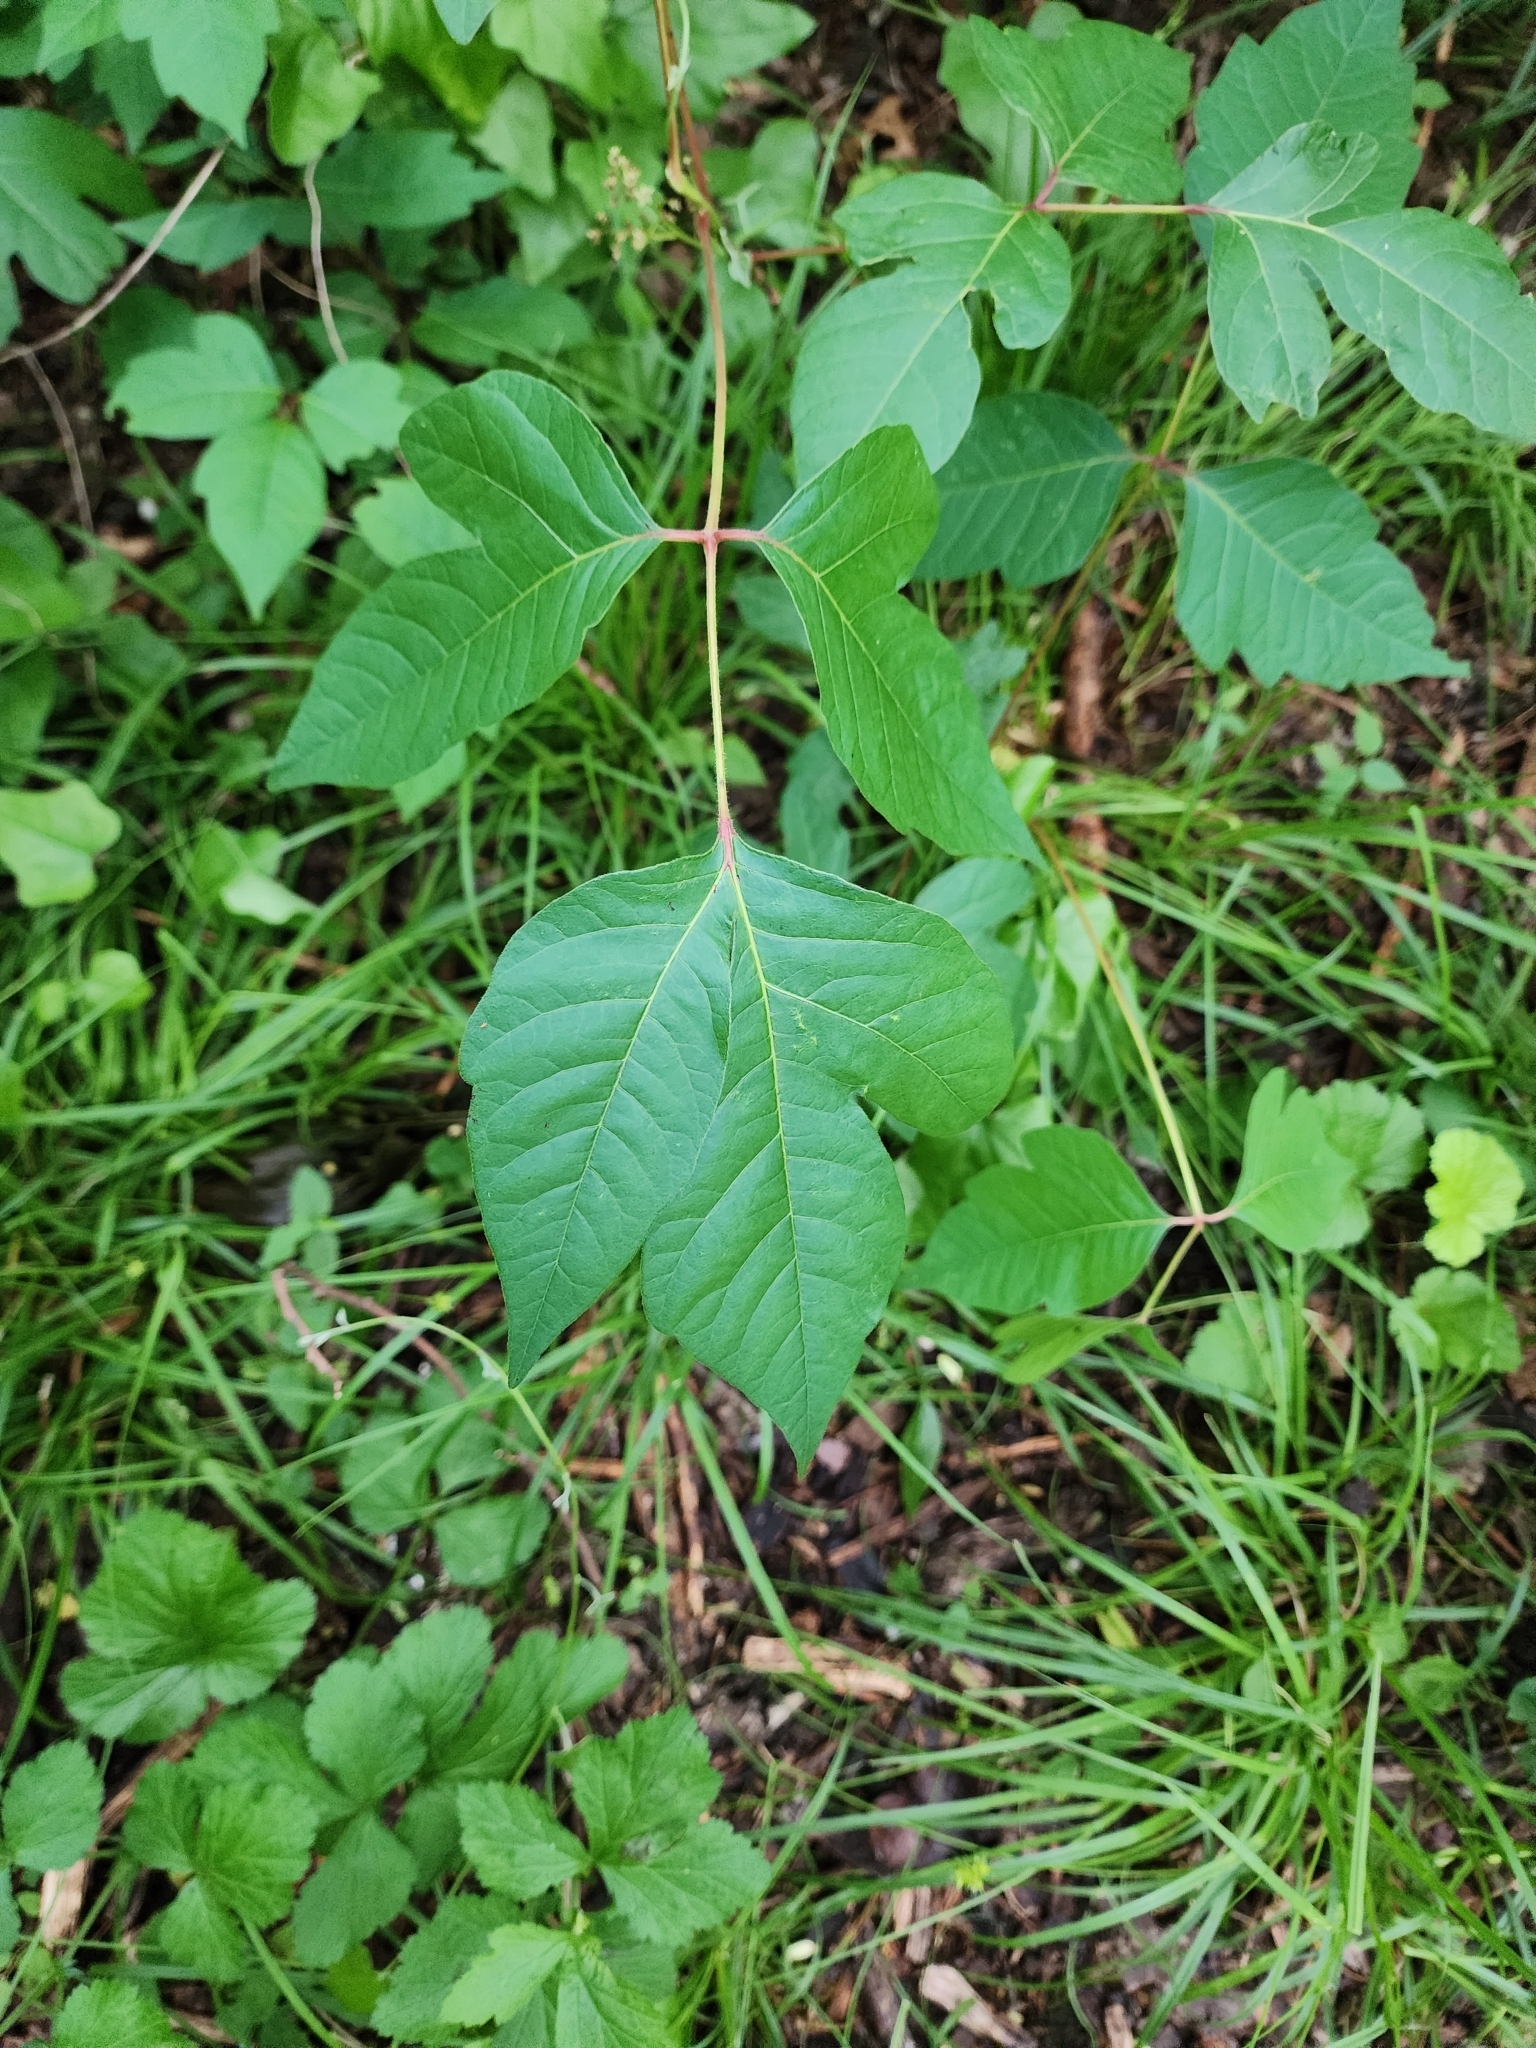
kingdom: Plantae
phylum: Tracheophyta
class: Magnoliopsida
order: Sapindales
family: Anacardiaceae
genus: Toxicodendron
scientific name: Toxicodendron radicans
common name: Poison ivy
